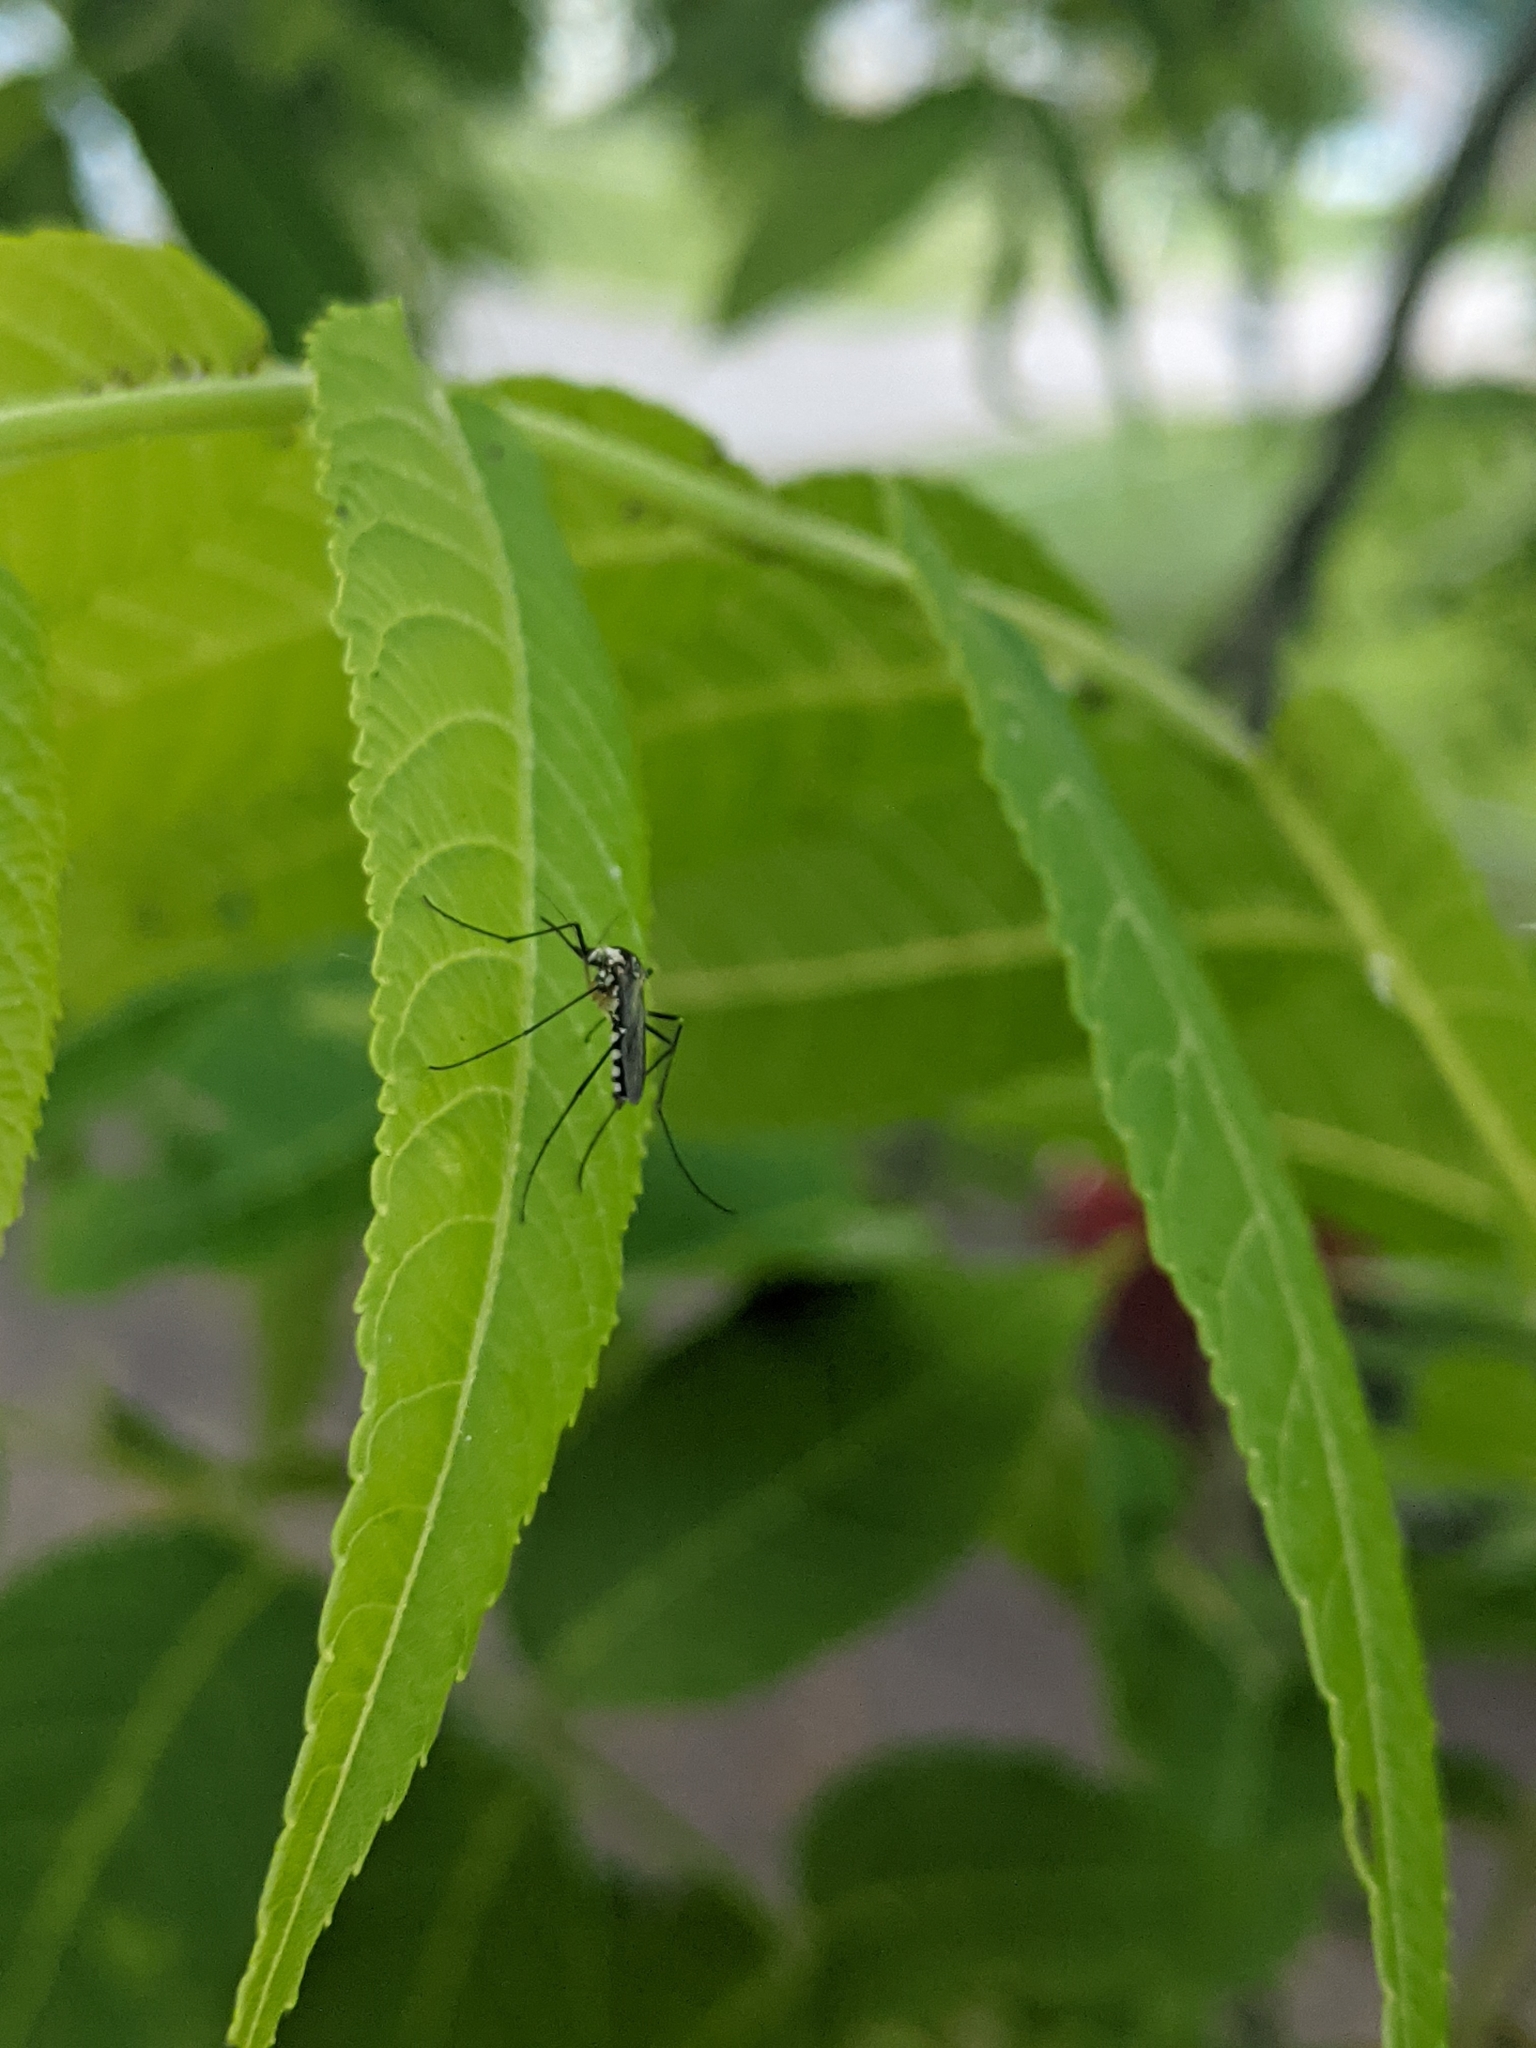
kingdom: Animalia
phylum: Arthropoda
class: Insecta
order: Diptera
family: Culicidae
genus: Aedes
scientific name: Aedes triseriatus
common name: Eastern treehole mosquito
